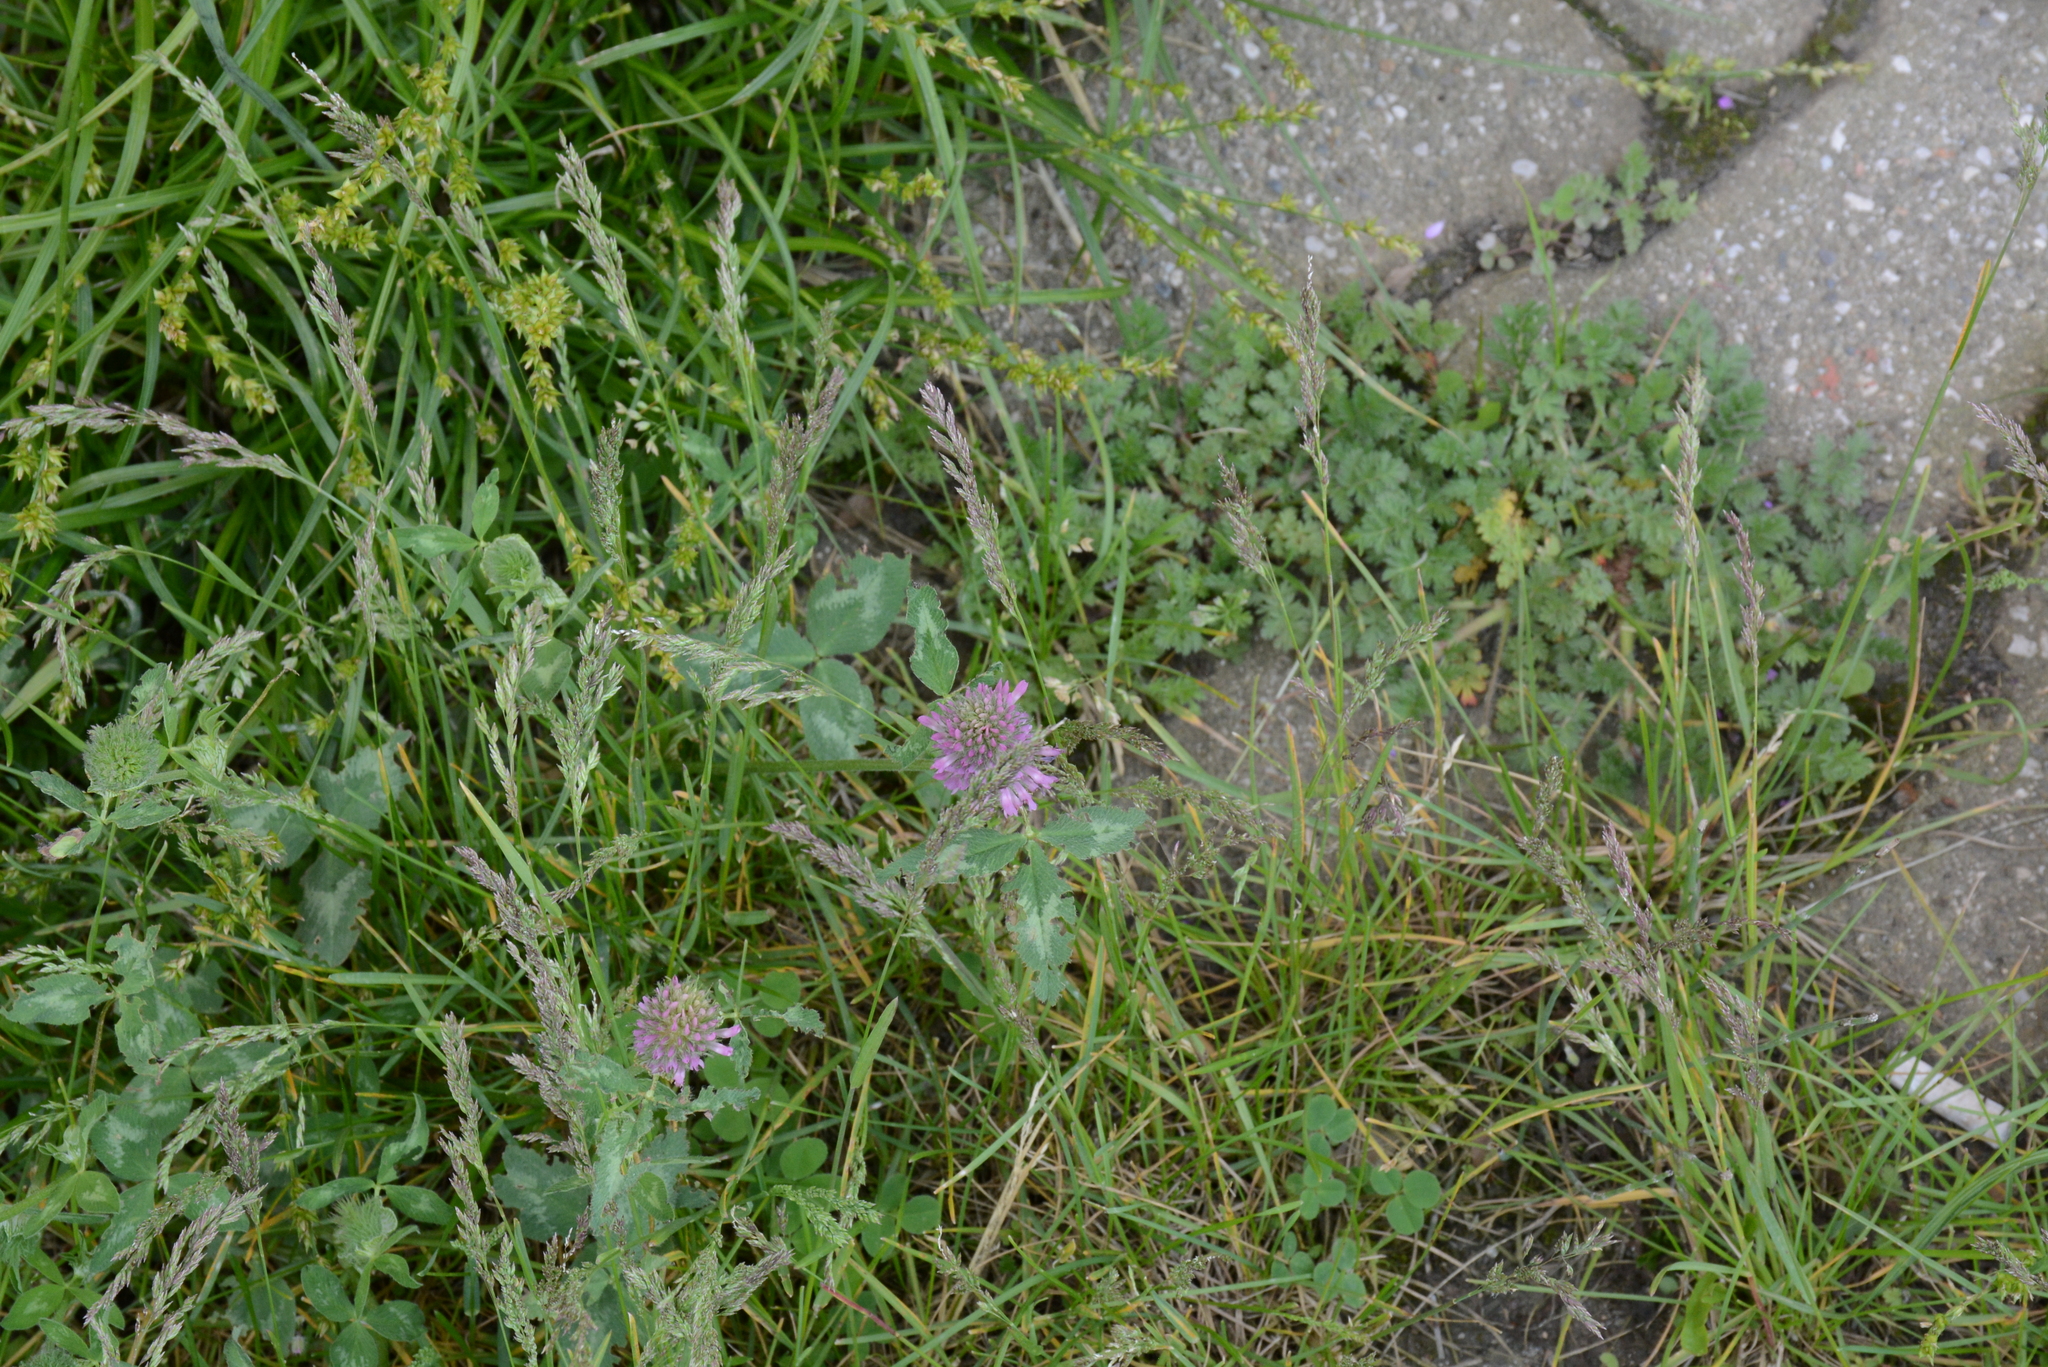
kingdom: Plantae
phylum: Tracheophyta
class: Magnoliopsida
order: Fabales
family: Fabaceae
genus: Trifolium
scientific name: Trifolium pratense
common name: Red clover
